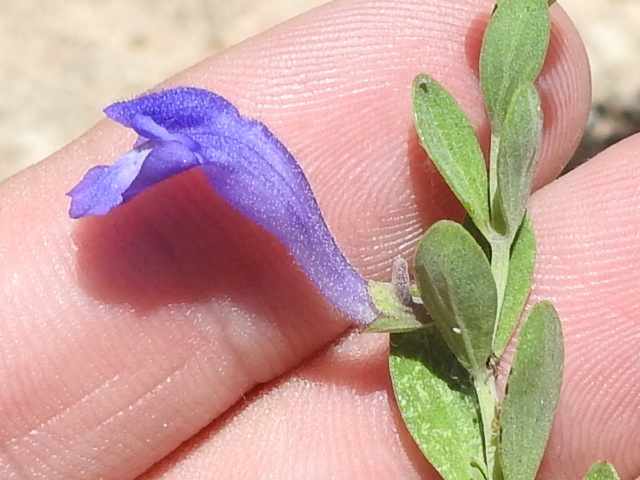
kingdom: Plantae
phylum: Tracheophyta
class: Magnoliopsida
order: Lamiales
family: Lamiaceae
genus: Scutellaria
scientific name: Scutellaria wrightii
